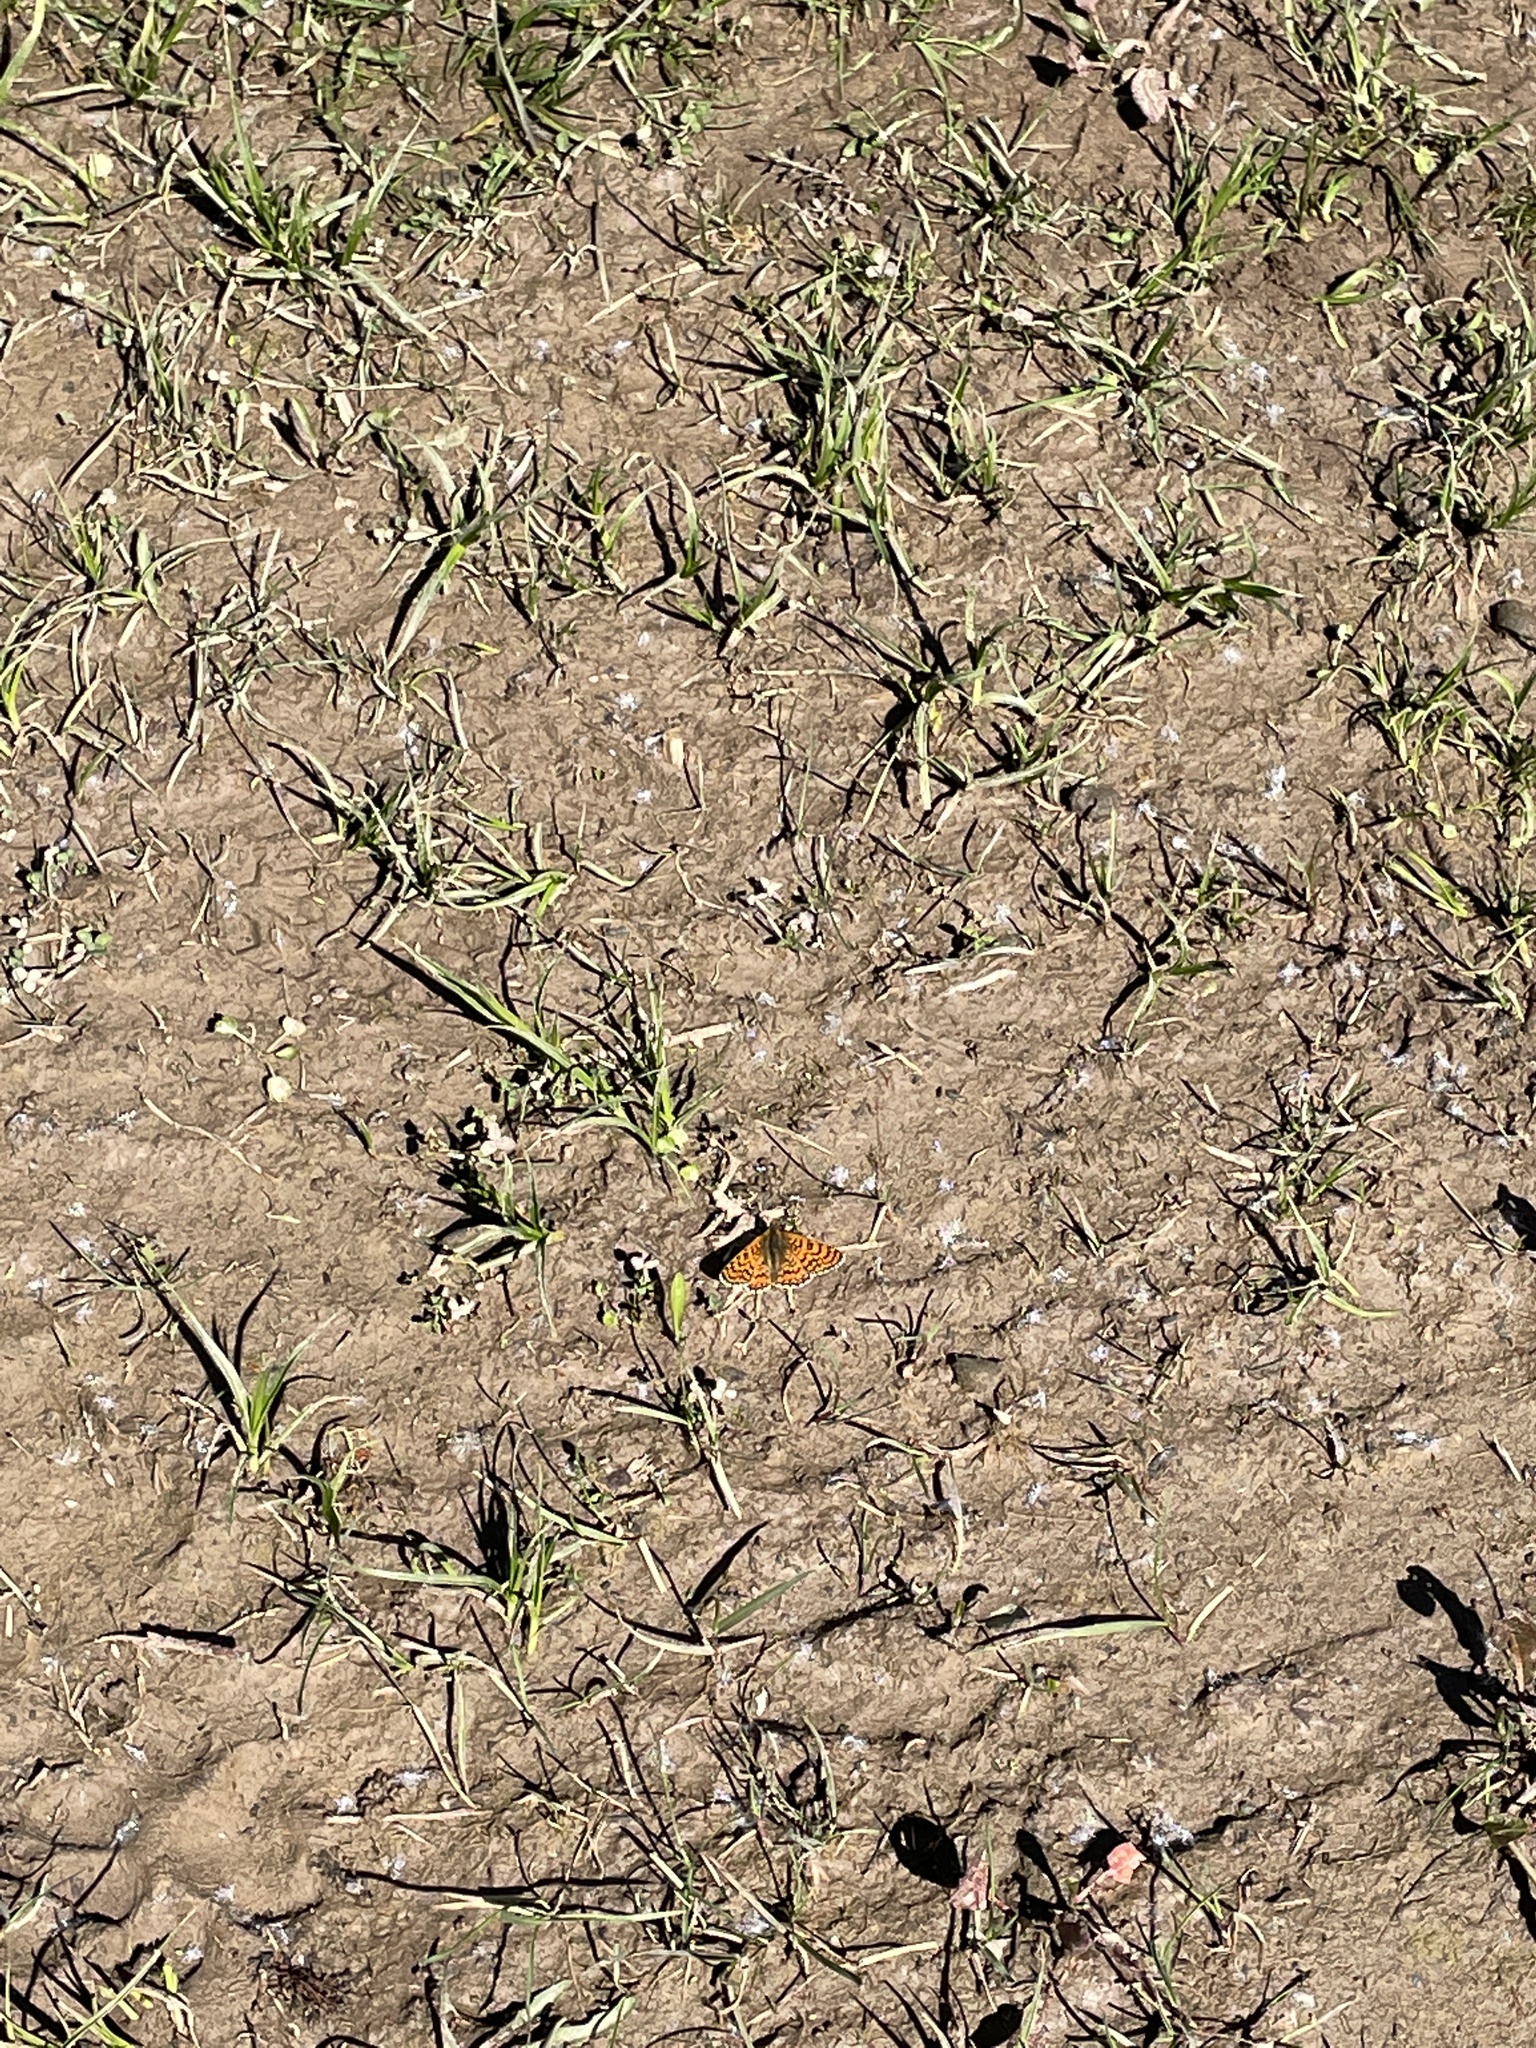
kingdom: Animalia
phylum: Arthropoda
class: Insecta
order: Lepidoptera
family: Nymphalidae
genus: Melitaea
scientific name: Melitaea cinxia
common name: Glanville fritillary
